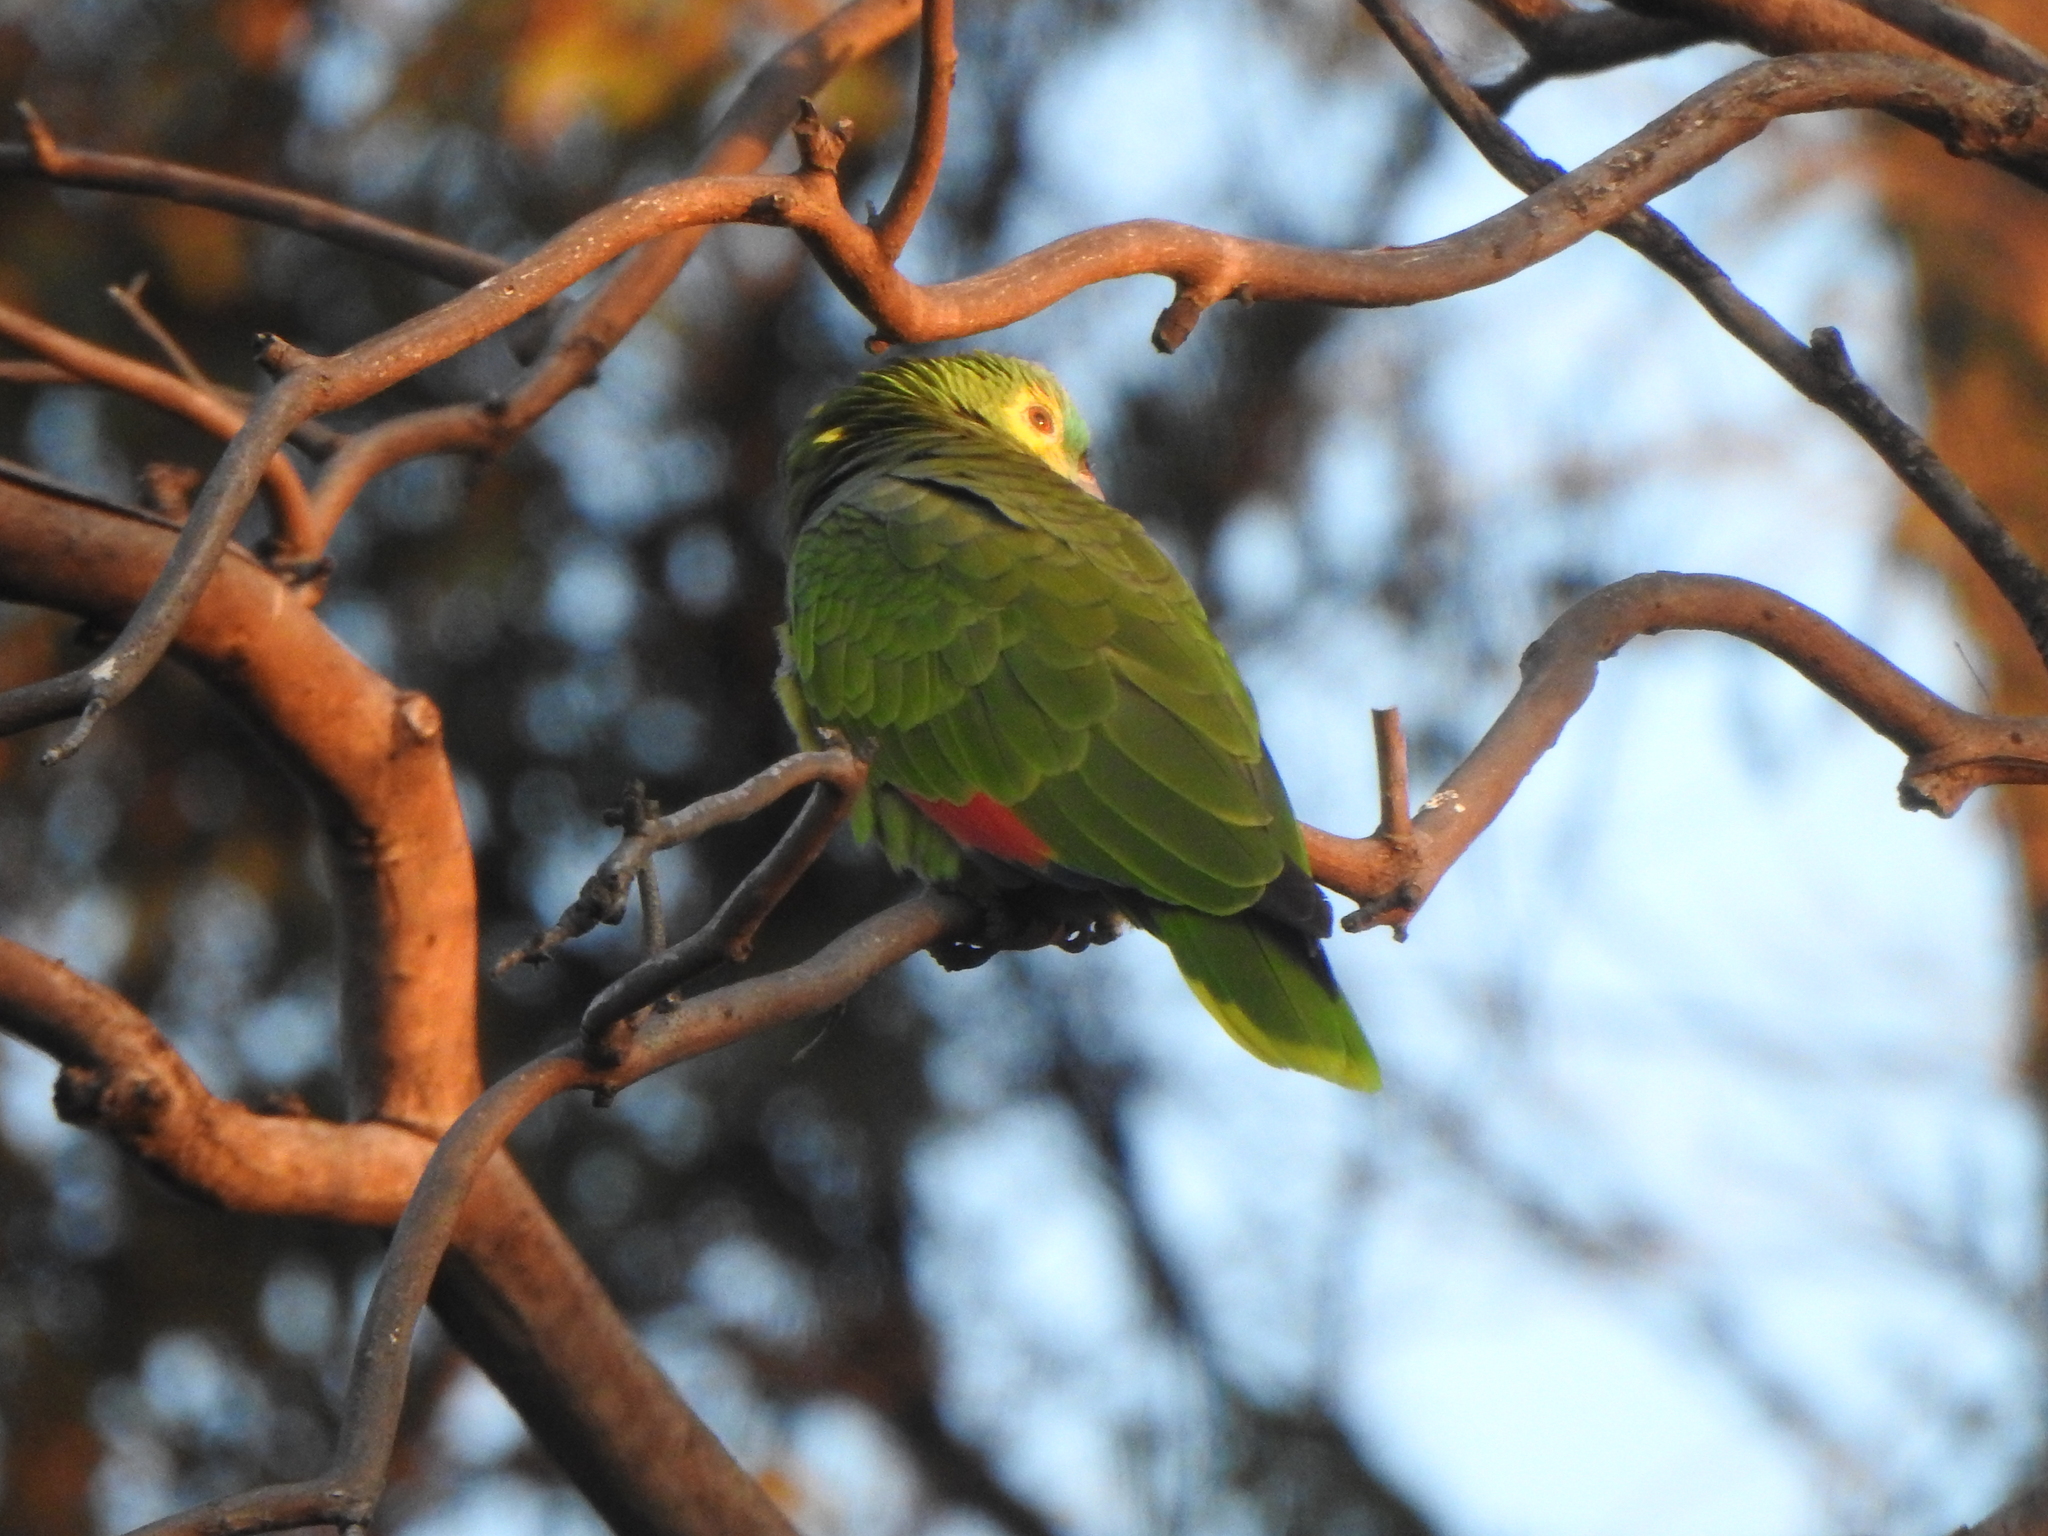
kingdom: Animalia
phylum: Chordata
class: Aves
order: Psittaciformes
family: Psittacidae
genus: Amazona
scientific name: Amazona aestiva
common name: Turquoise-fronted amazon
